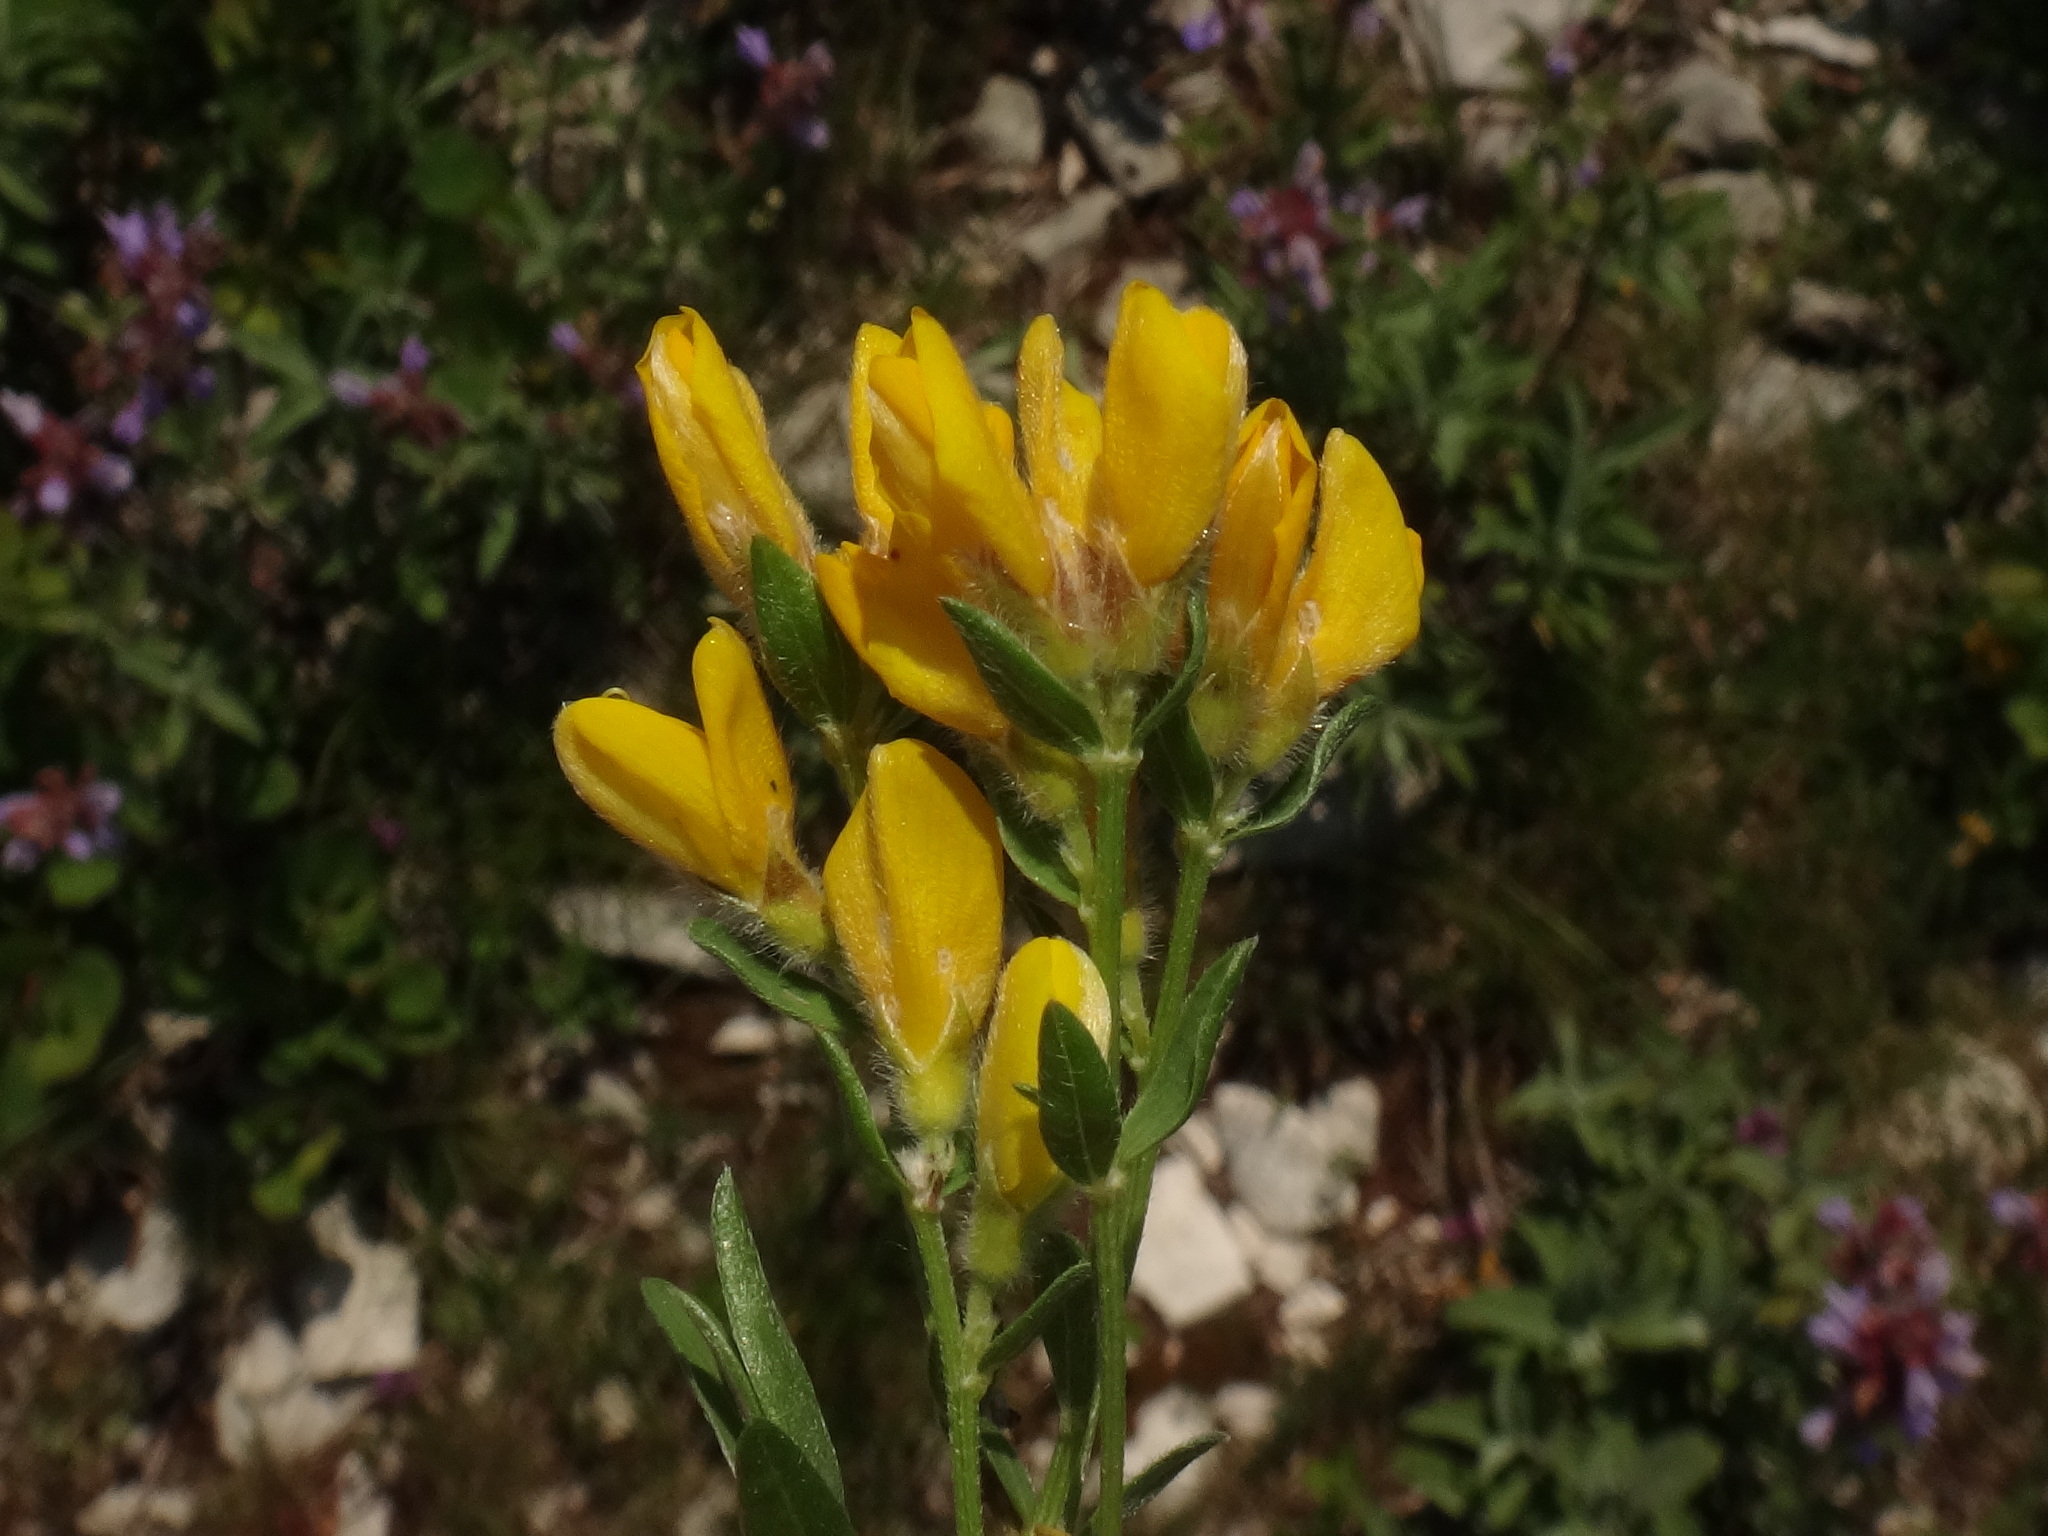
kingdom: Plantae
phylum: Tracheophyta
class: Magnoliopsida
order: Fabales
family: Fabaceae
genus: Genista
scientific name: Genista sericea
